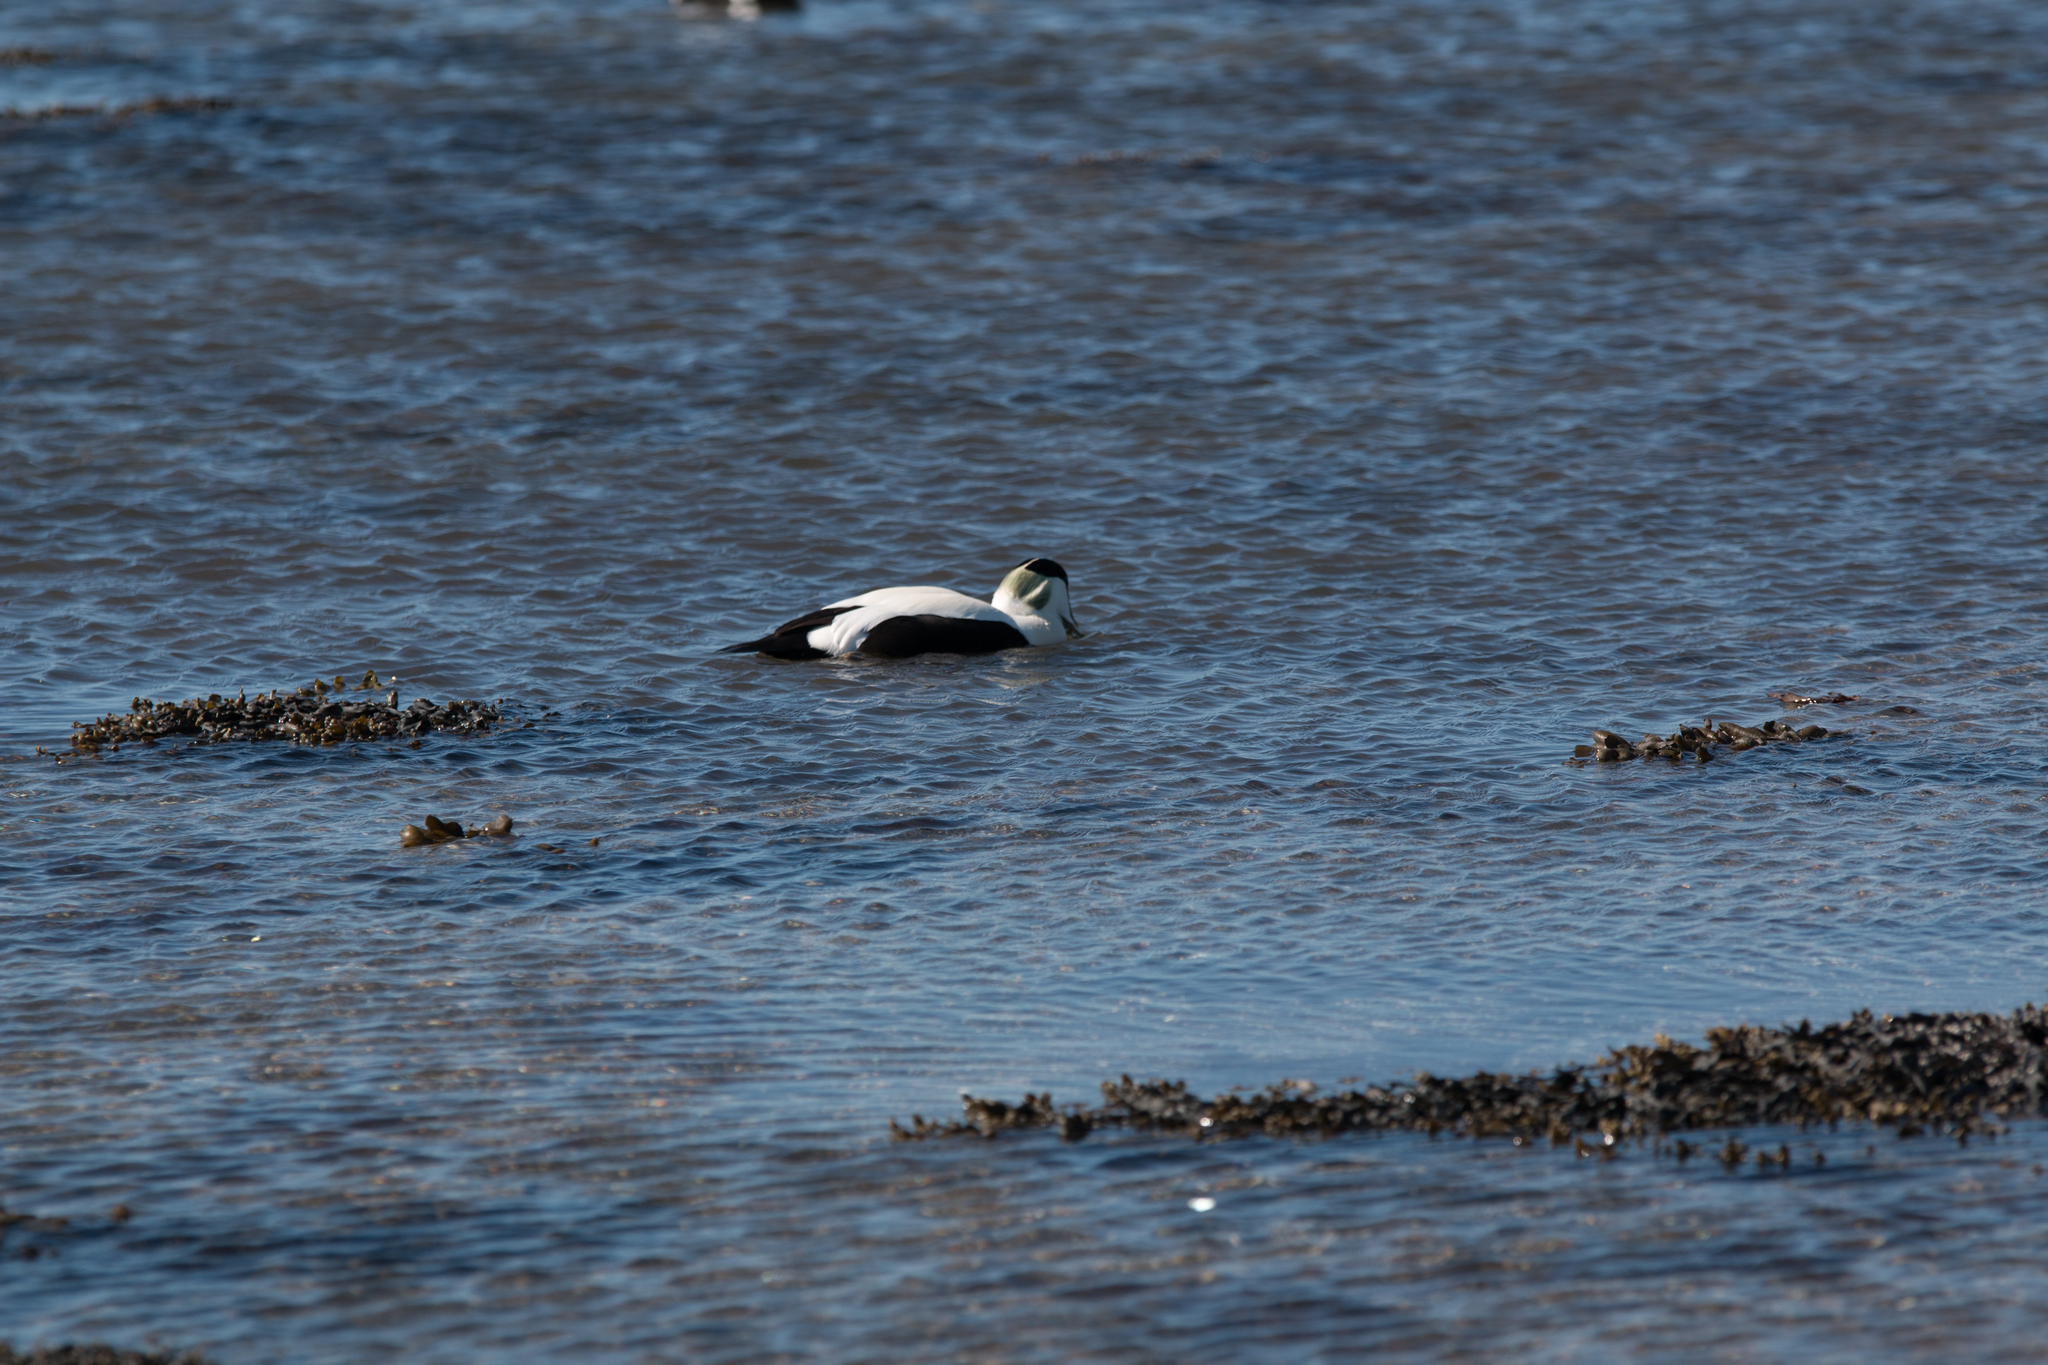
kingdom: Animalia
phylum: Chordata
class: Aves
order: Anseriformes
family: Anatidae
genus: Somateria
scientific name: Somateria mollissima
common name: Common eider
